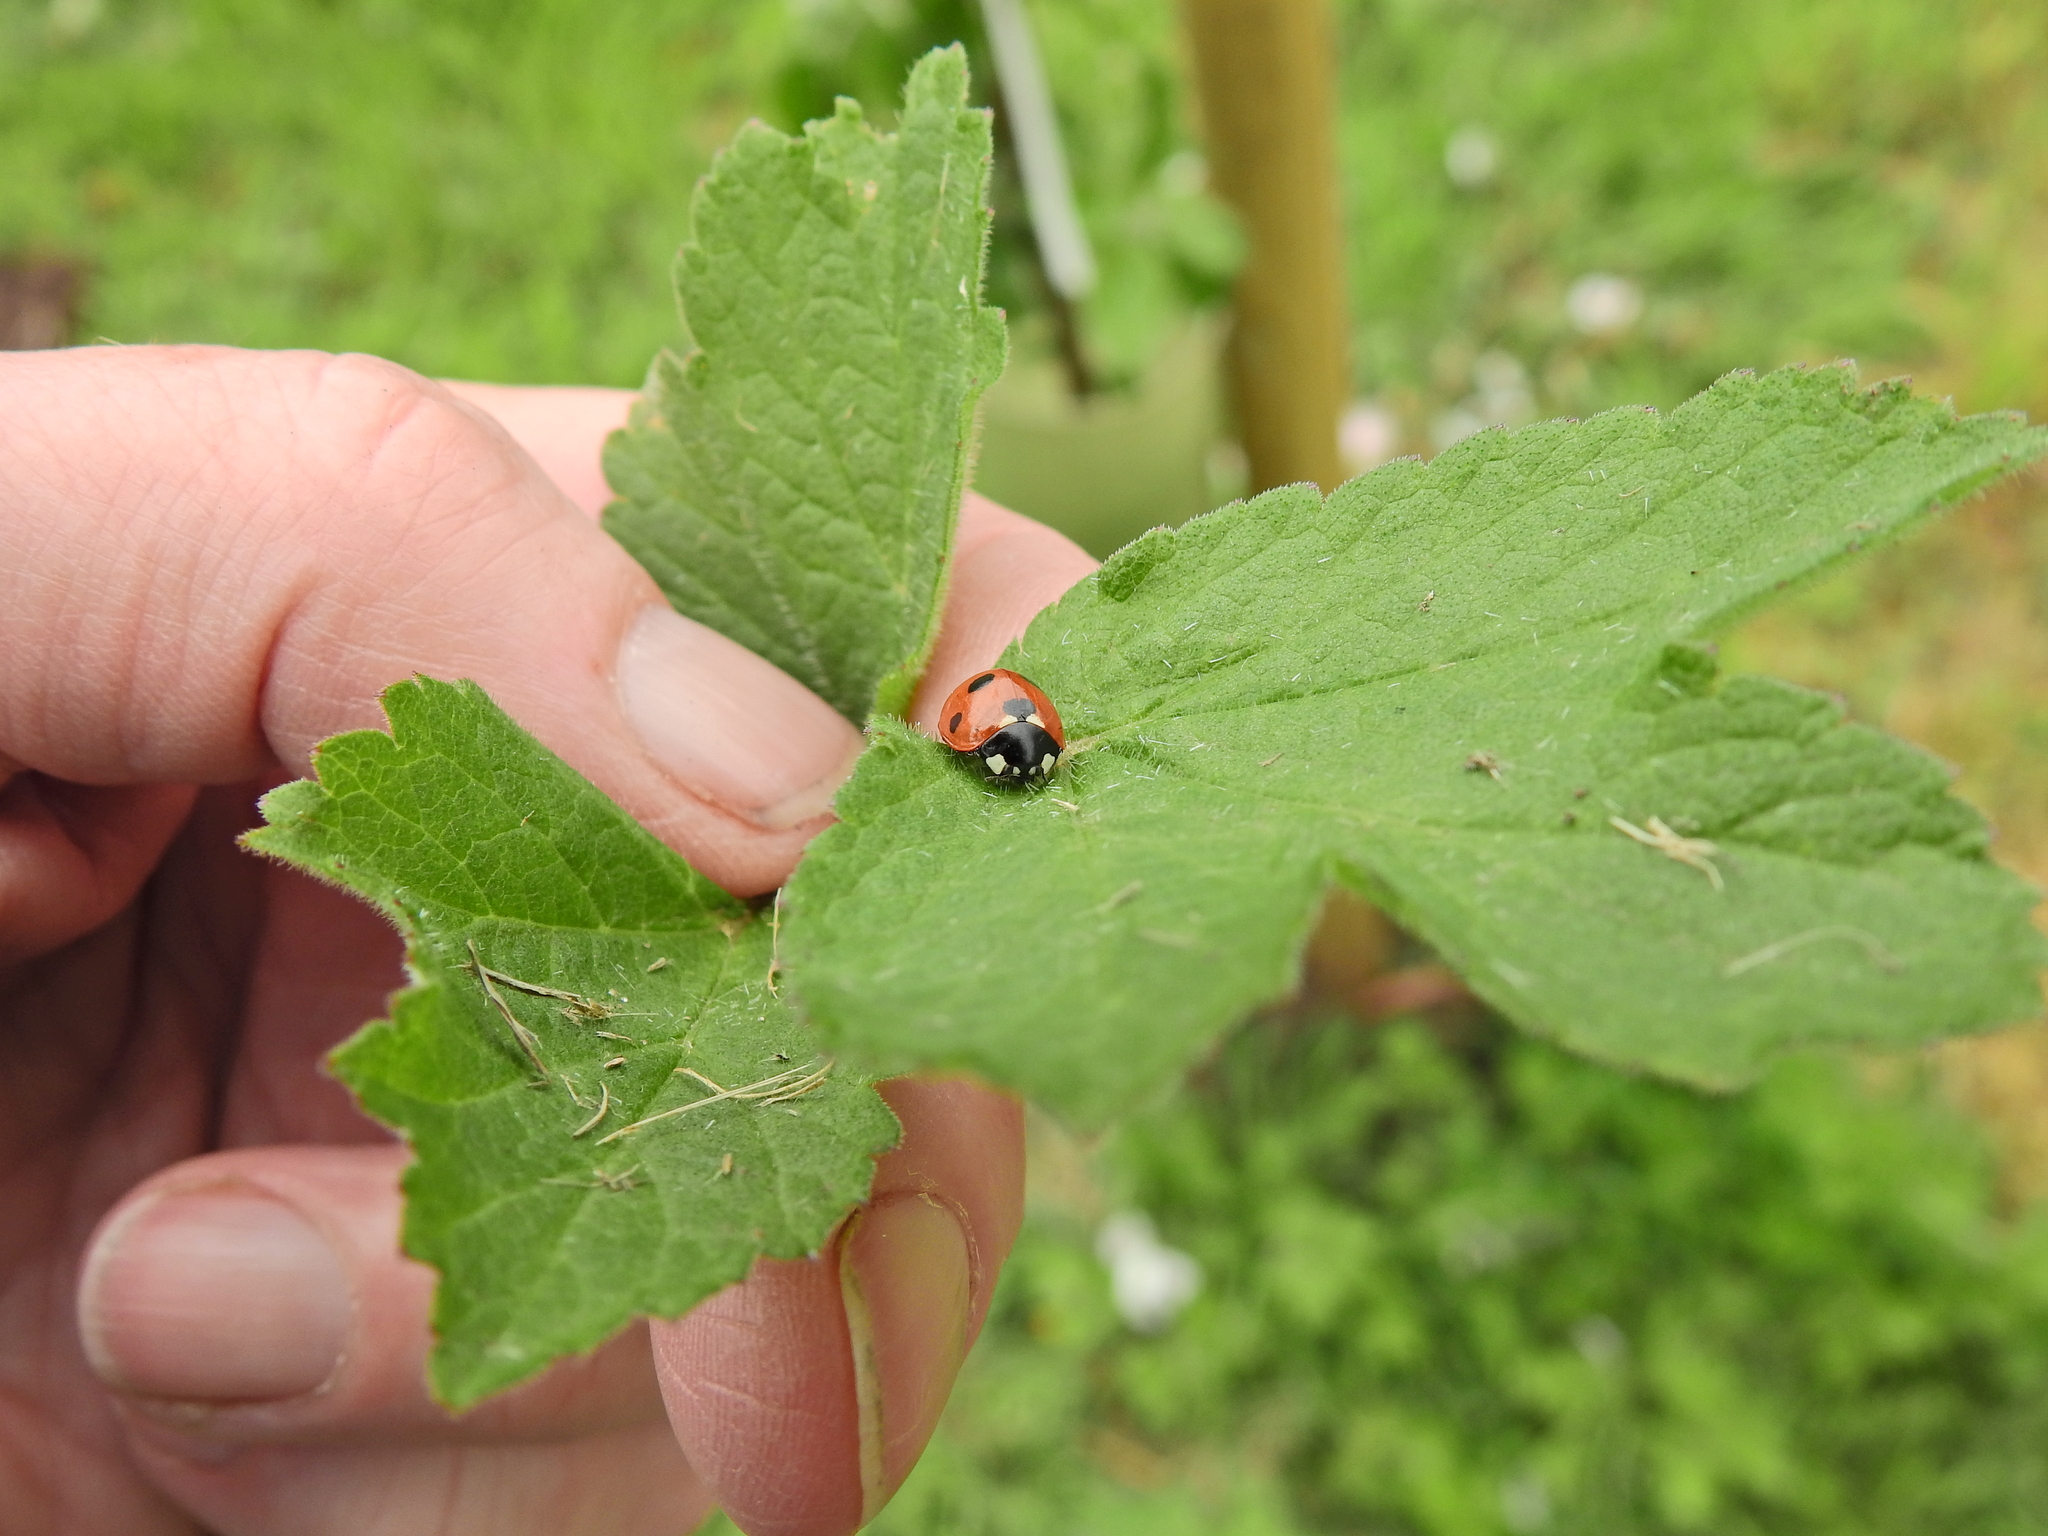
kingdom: Animalia
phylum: Arthropoda
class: Insecta
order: Coleoptera
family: Coccinellidae
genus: Coccinella
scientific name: Coccinella septempunctata
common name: Sevenspotted lady beetle
